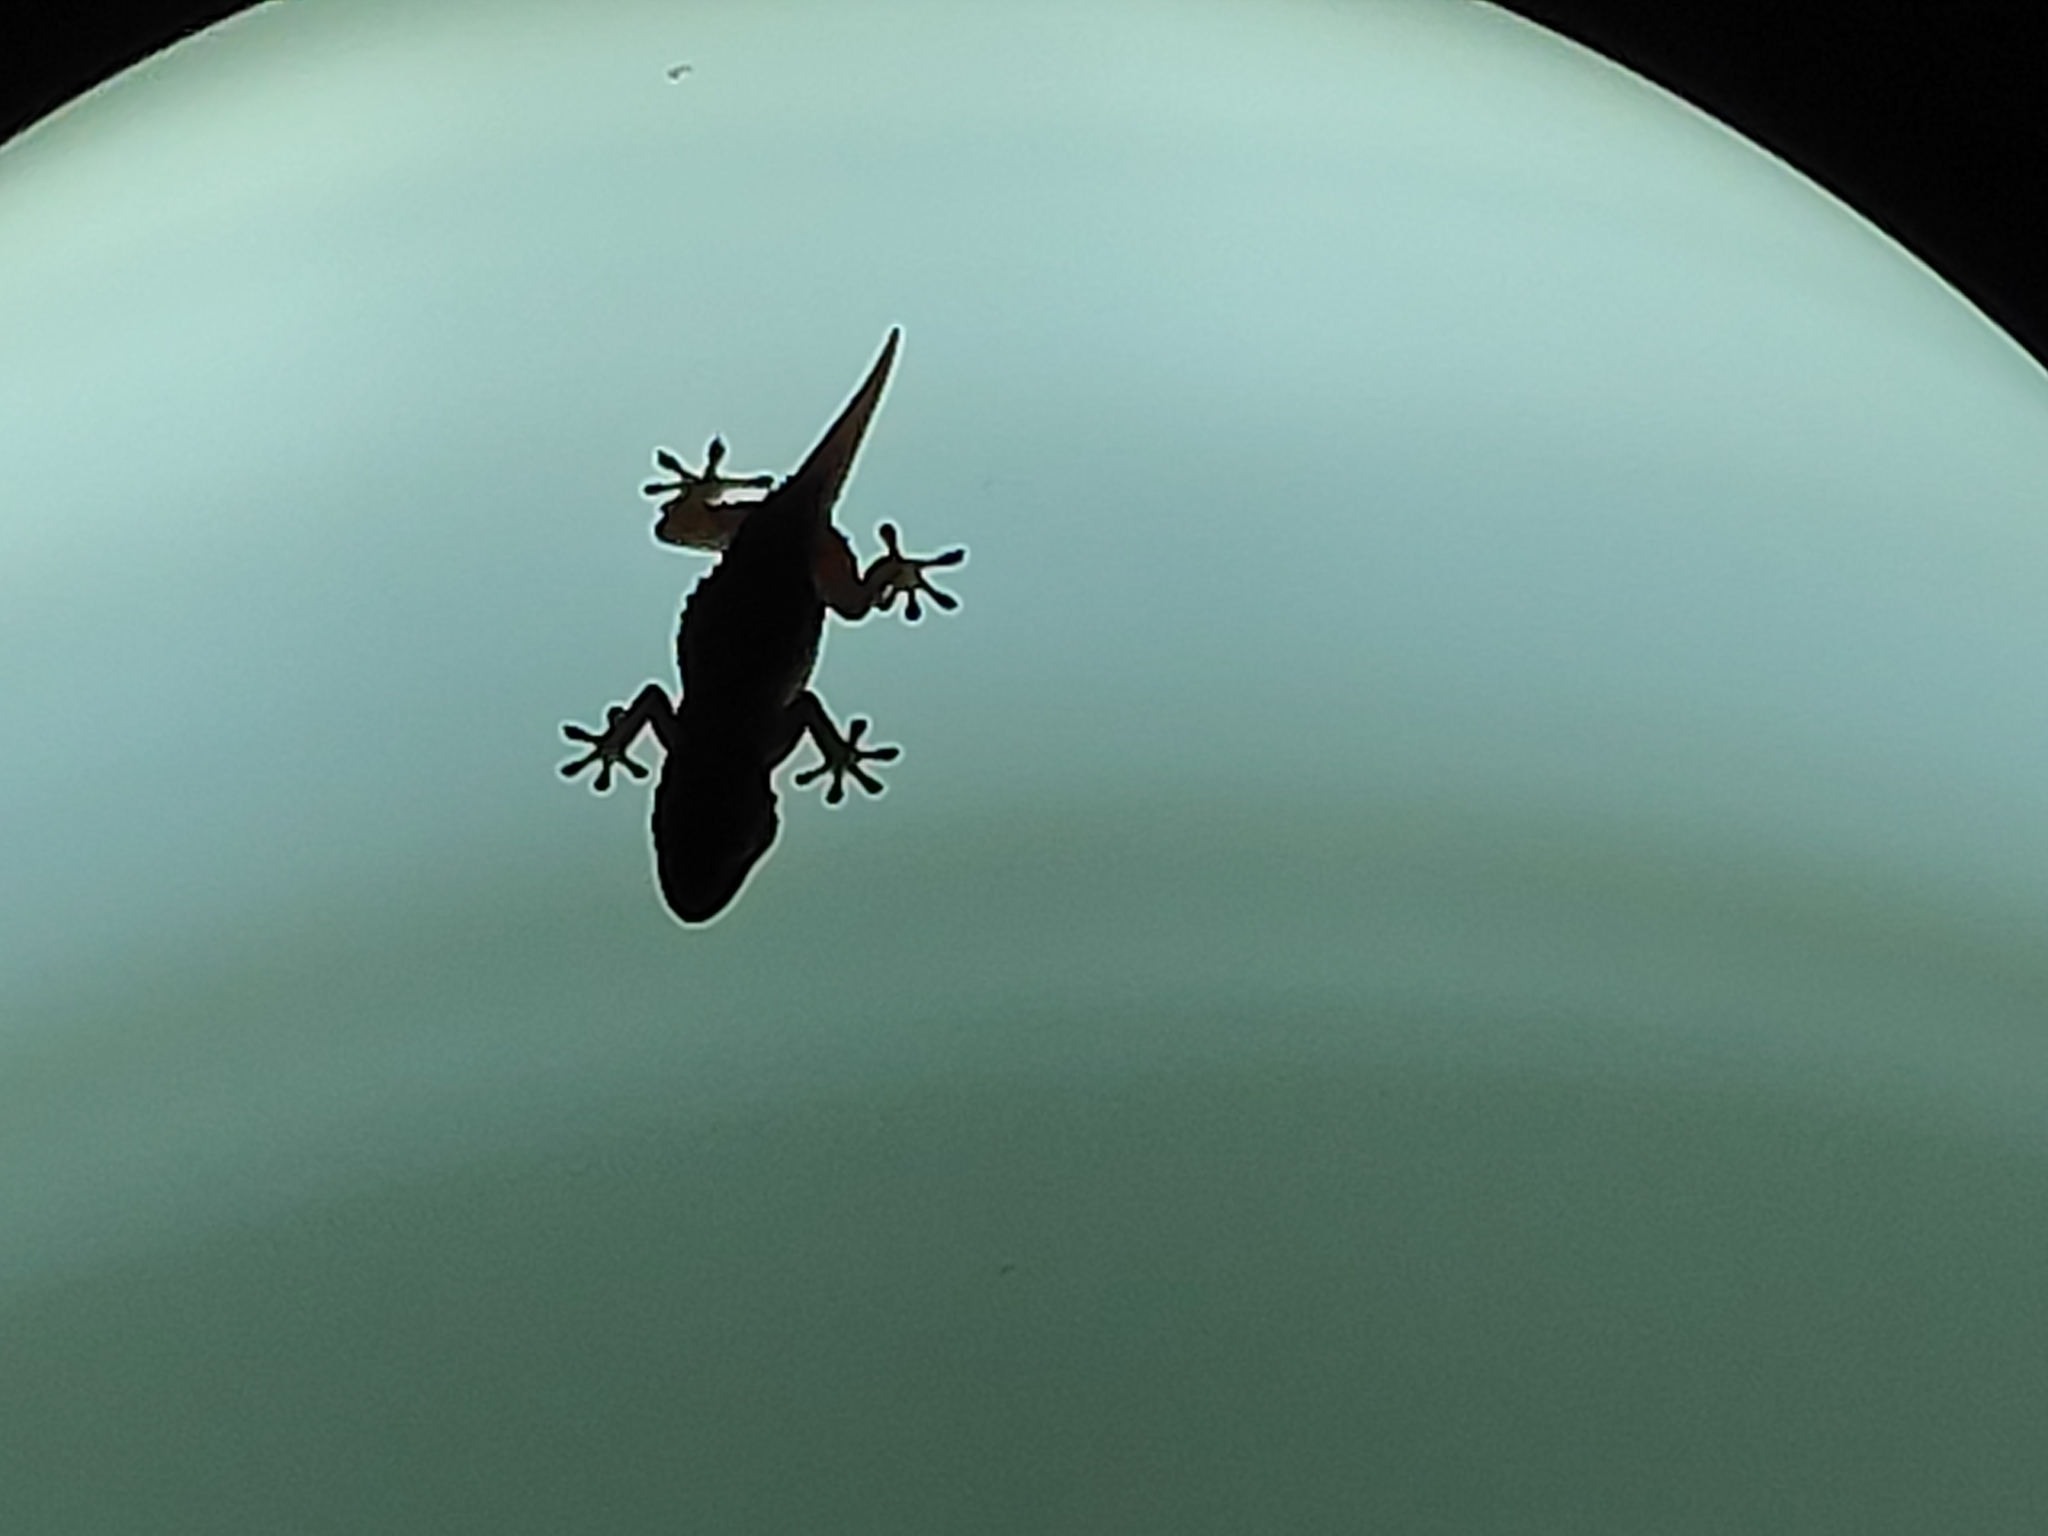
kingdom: Animalia
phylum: Chordata
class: Squamata
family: Phyllodactylidae
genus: Tarentola
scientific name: Tarentola mauritanica
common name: Moorish gecko
